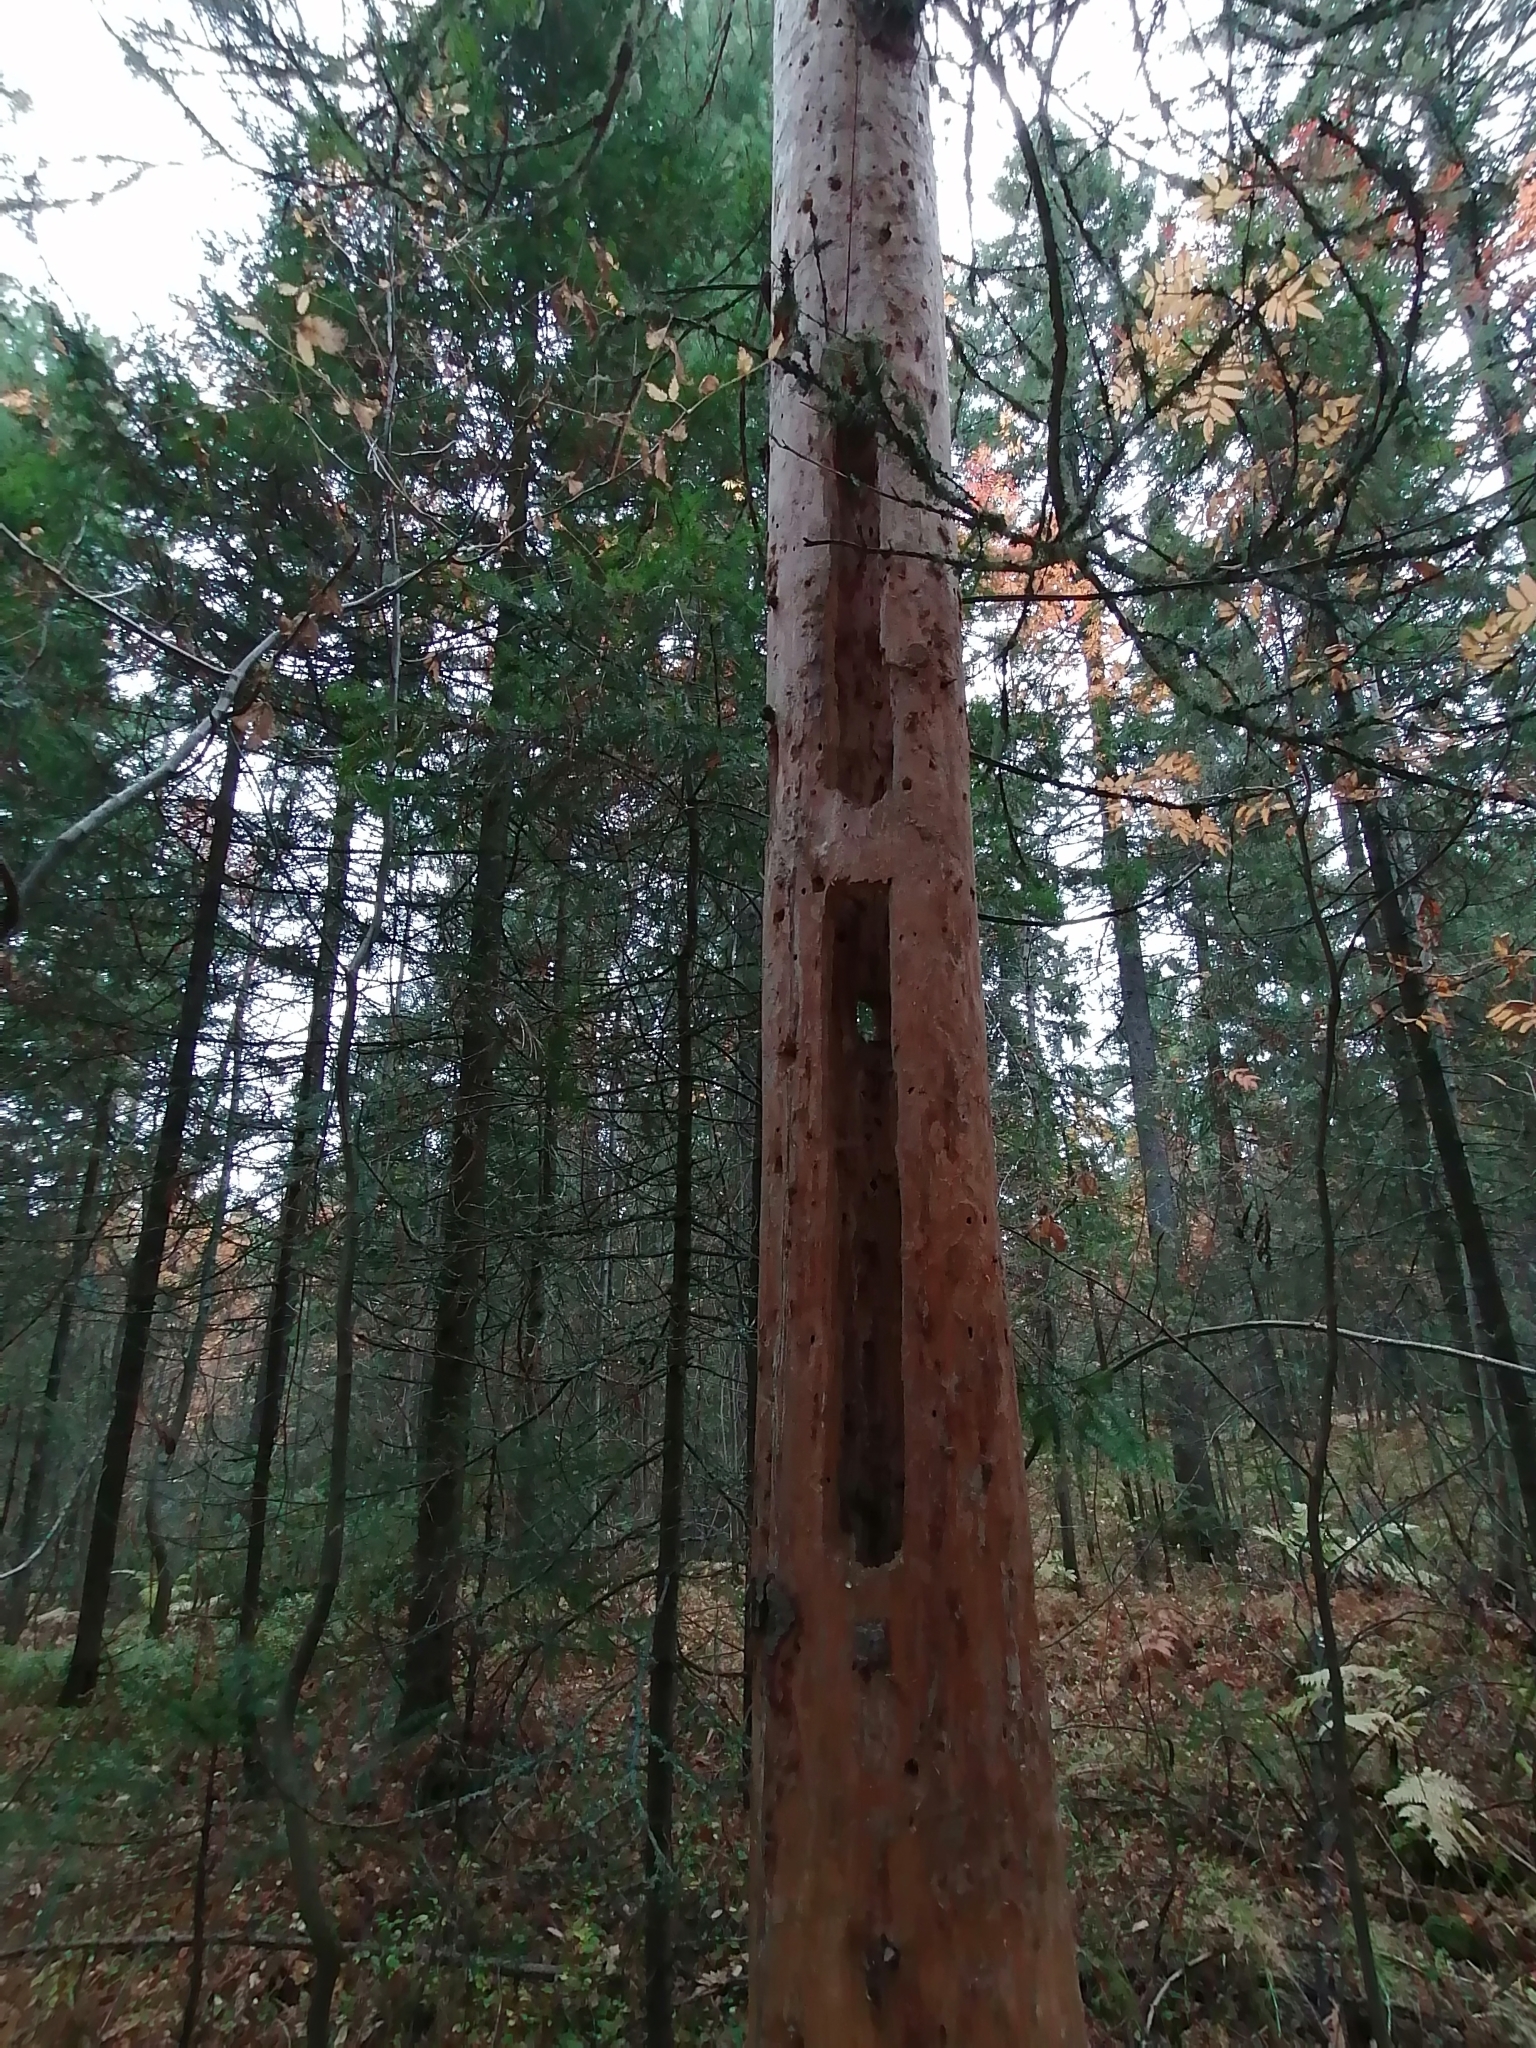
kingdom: Animalia
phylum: Chordata
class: Aves
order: Piciformes
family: Picidae
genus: Dryocopus
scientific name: Dryocopus martius
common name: Black woodpecker
